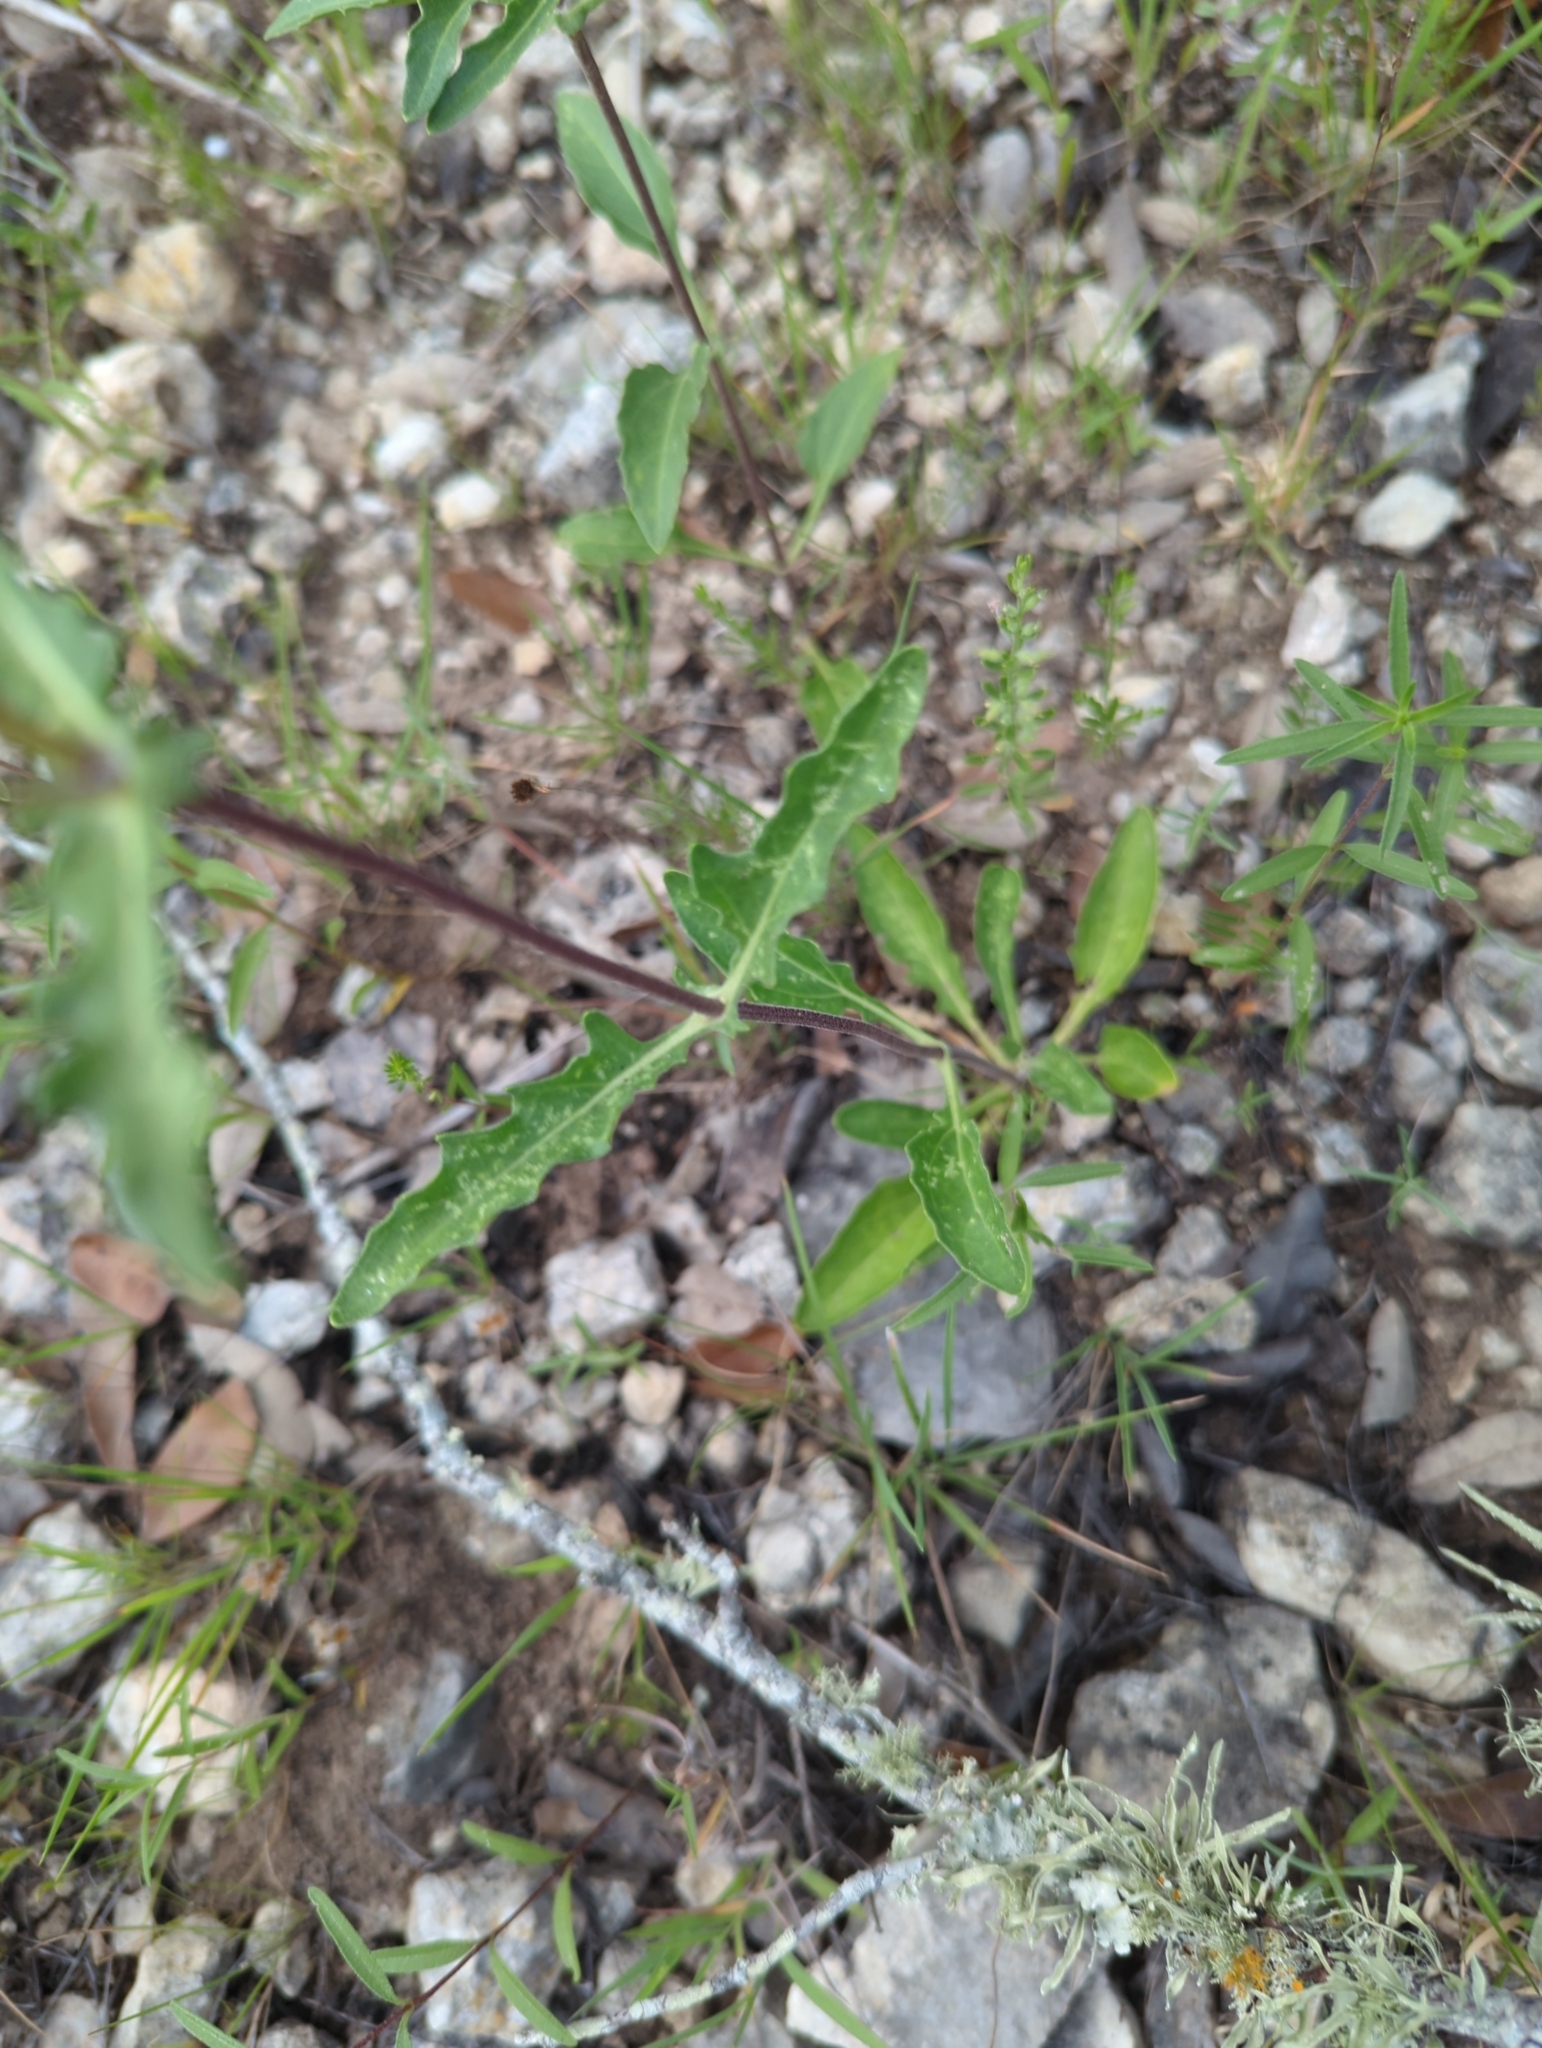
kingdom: Plantae
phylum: Tracheophyta
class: Magnoliopsida
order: Asterales
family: Asteraceae
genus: Tetragonotheca
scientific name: Tetragonotheca texana
